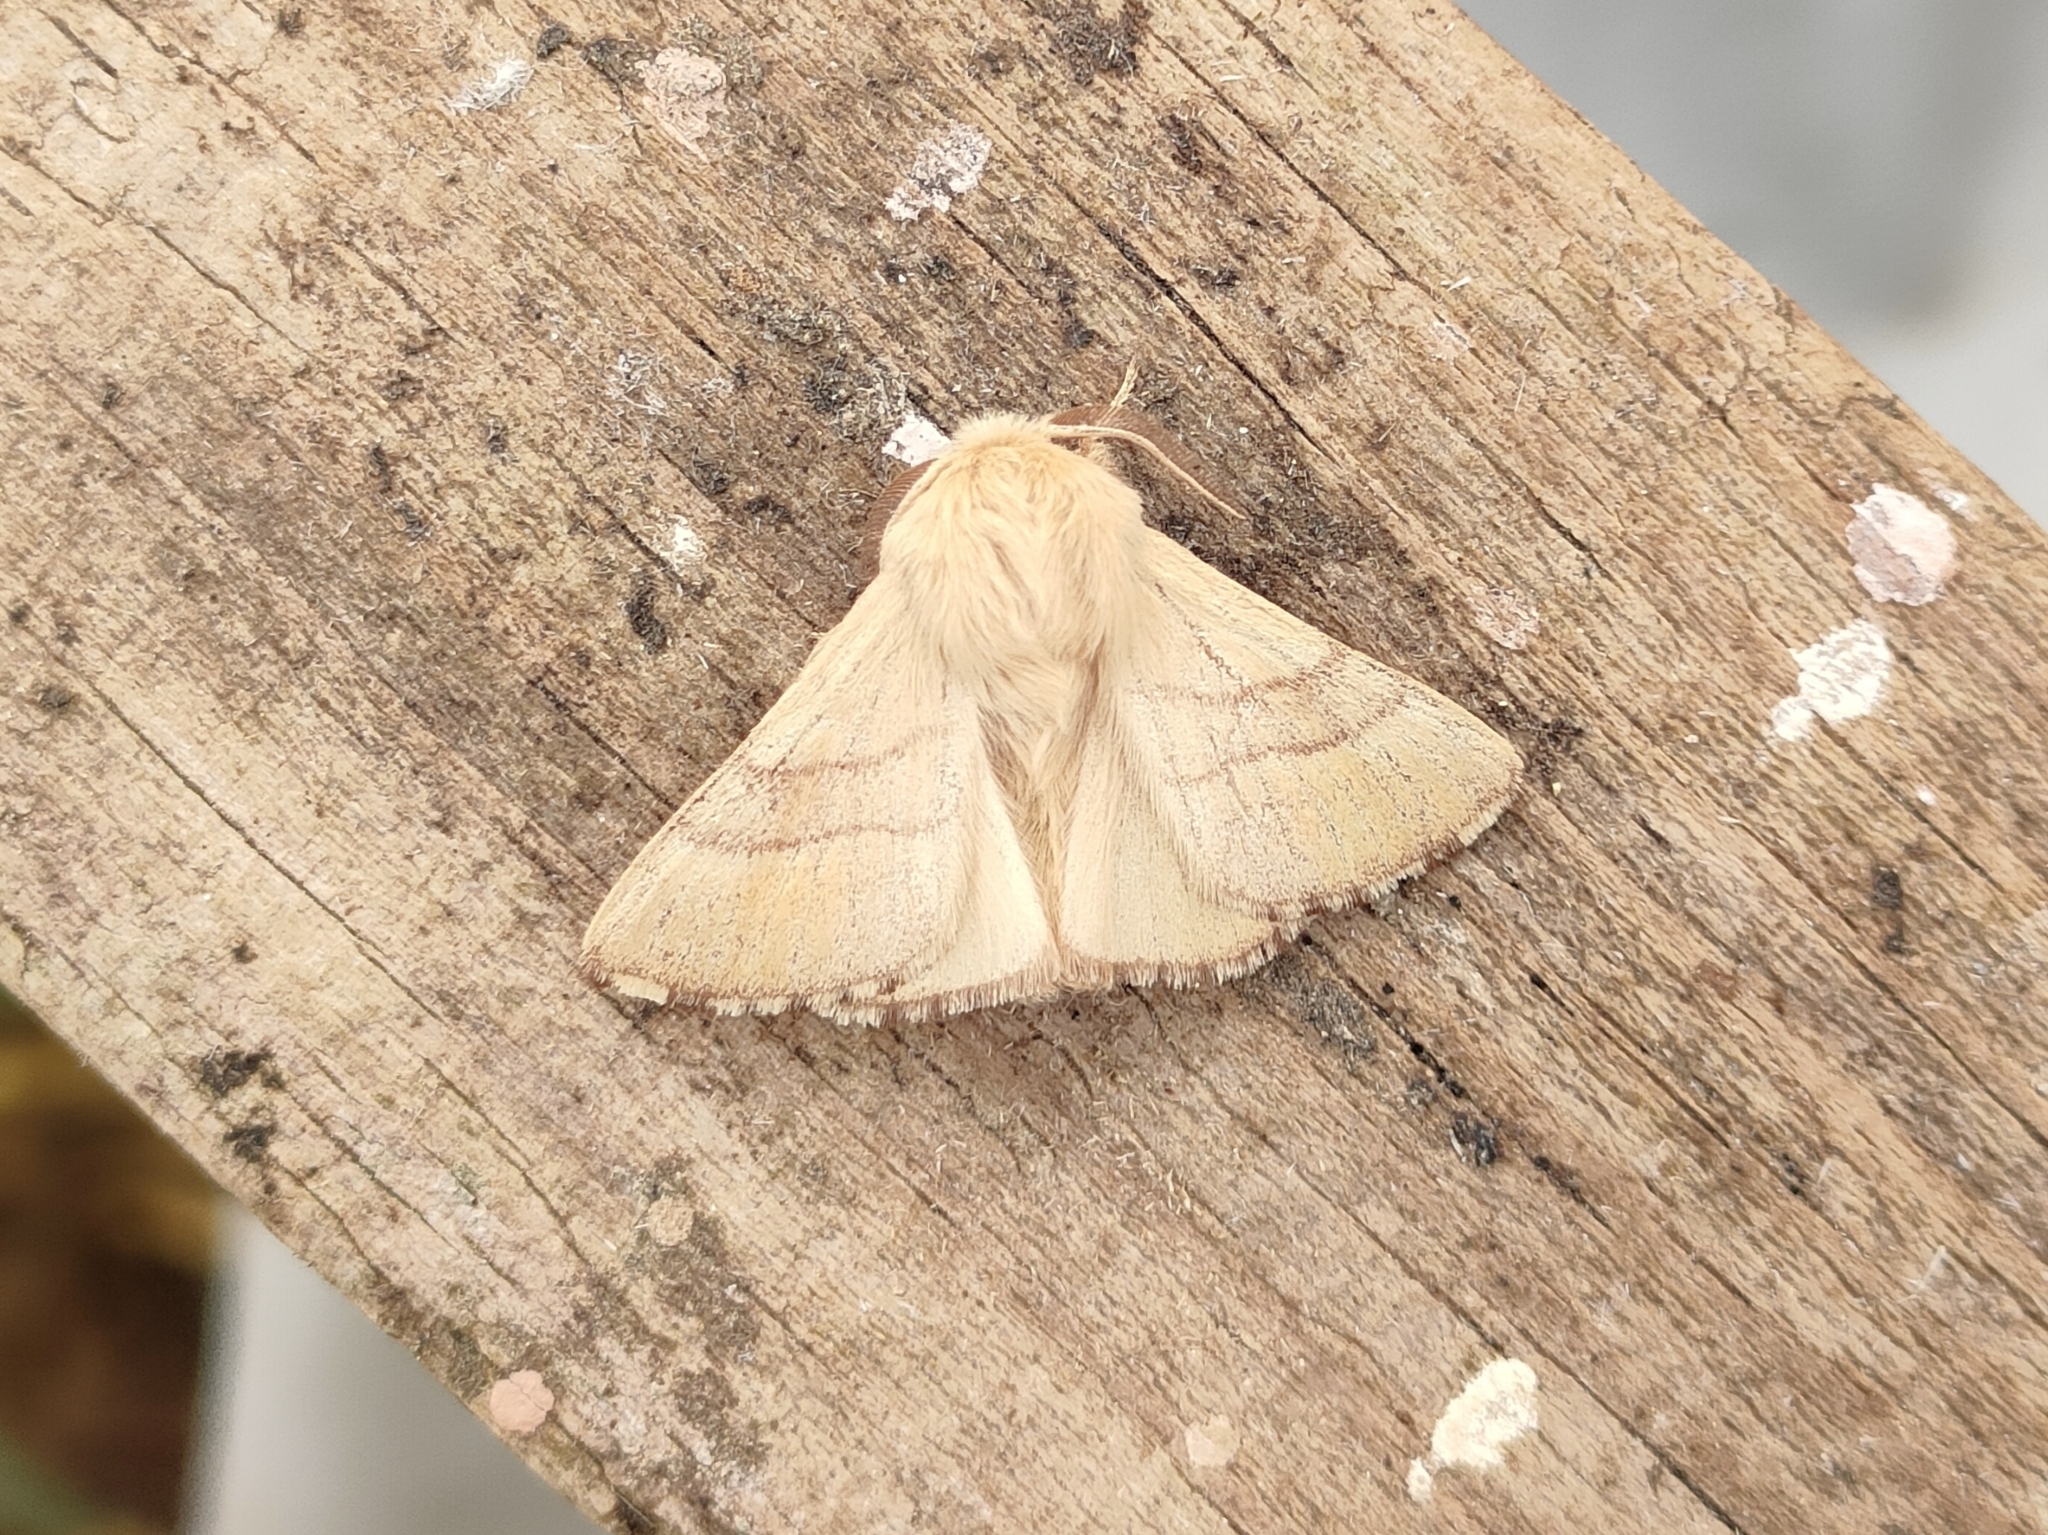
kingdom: Animalia
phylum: Arthropoda
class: Insecta
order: Lepidoptera
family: Lasiocampidae
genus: Malacosoma
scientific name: Malacosoma neustria
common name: The lackey
